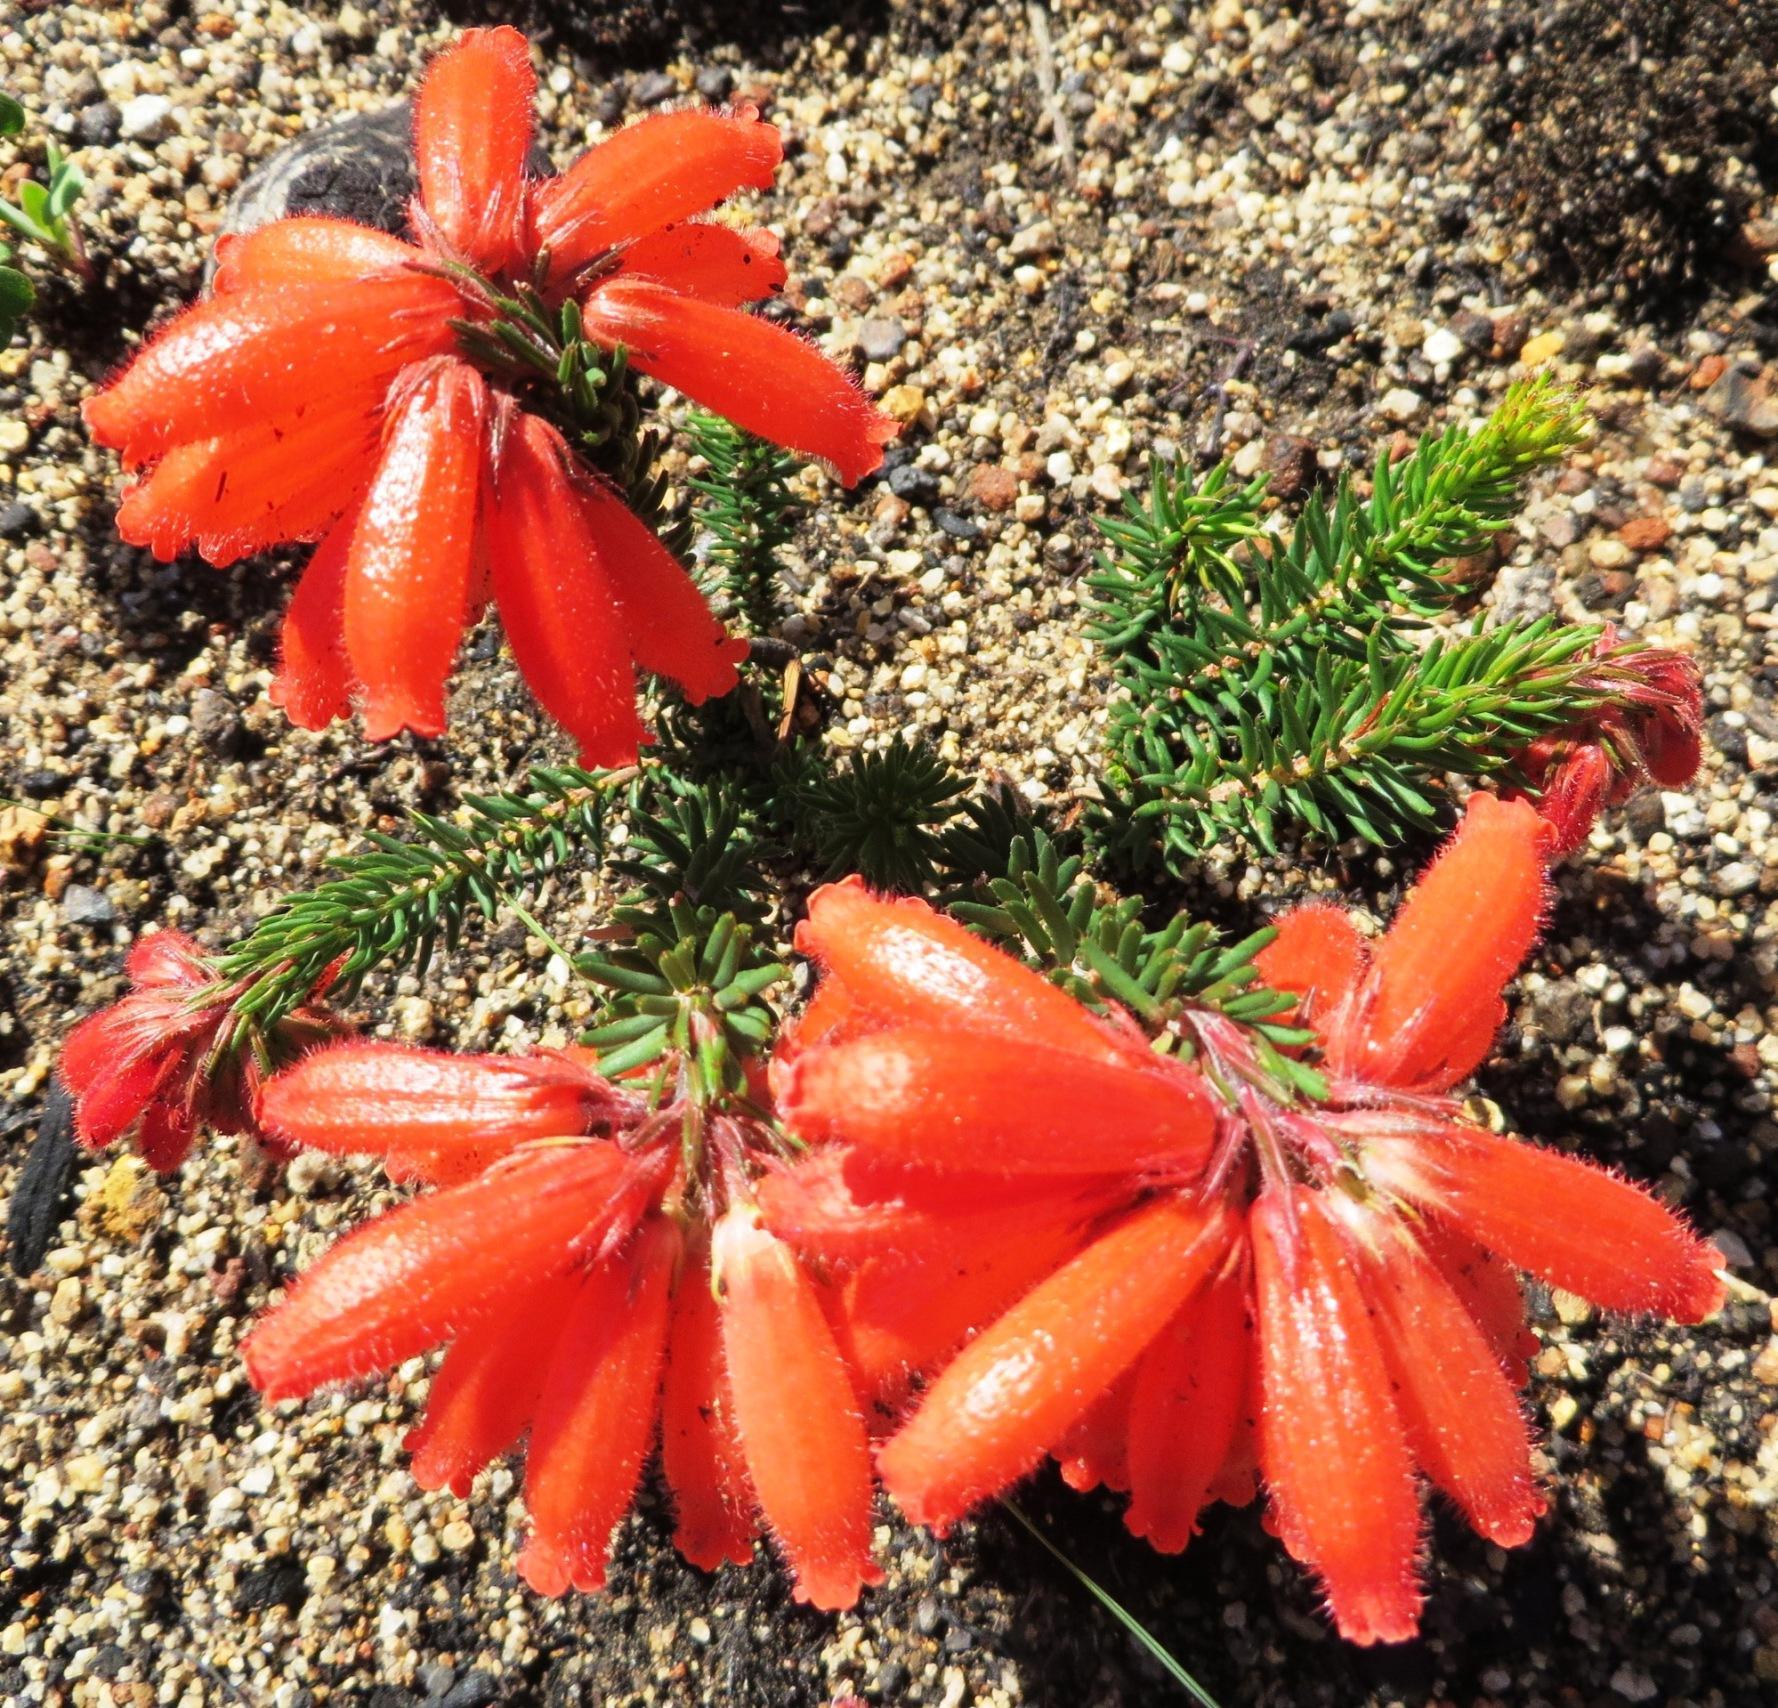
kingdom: Plantae
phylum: Tracheophyta
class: Magnoliopsida
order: Ericales
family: Ericaceae
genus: Erica
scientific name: Erica cerinthoides
